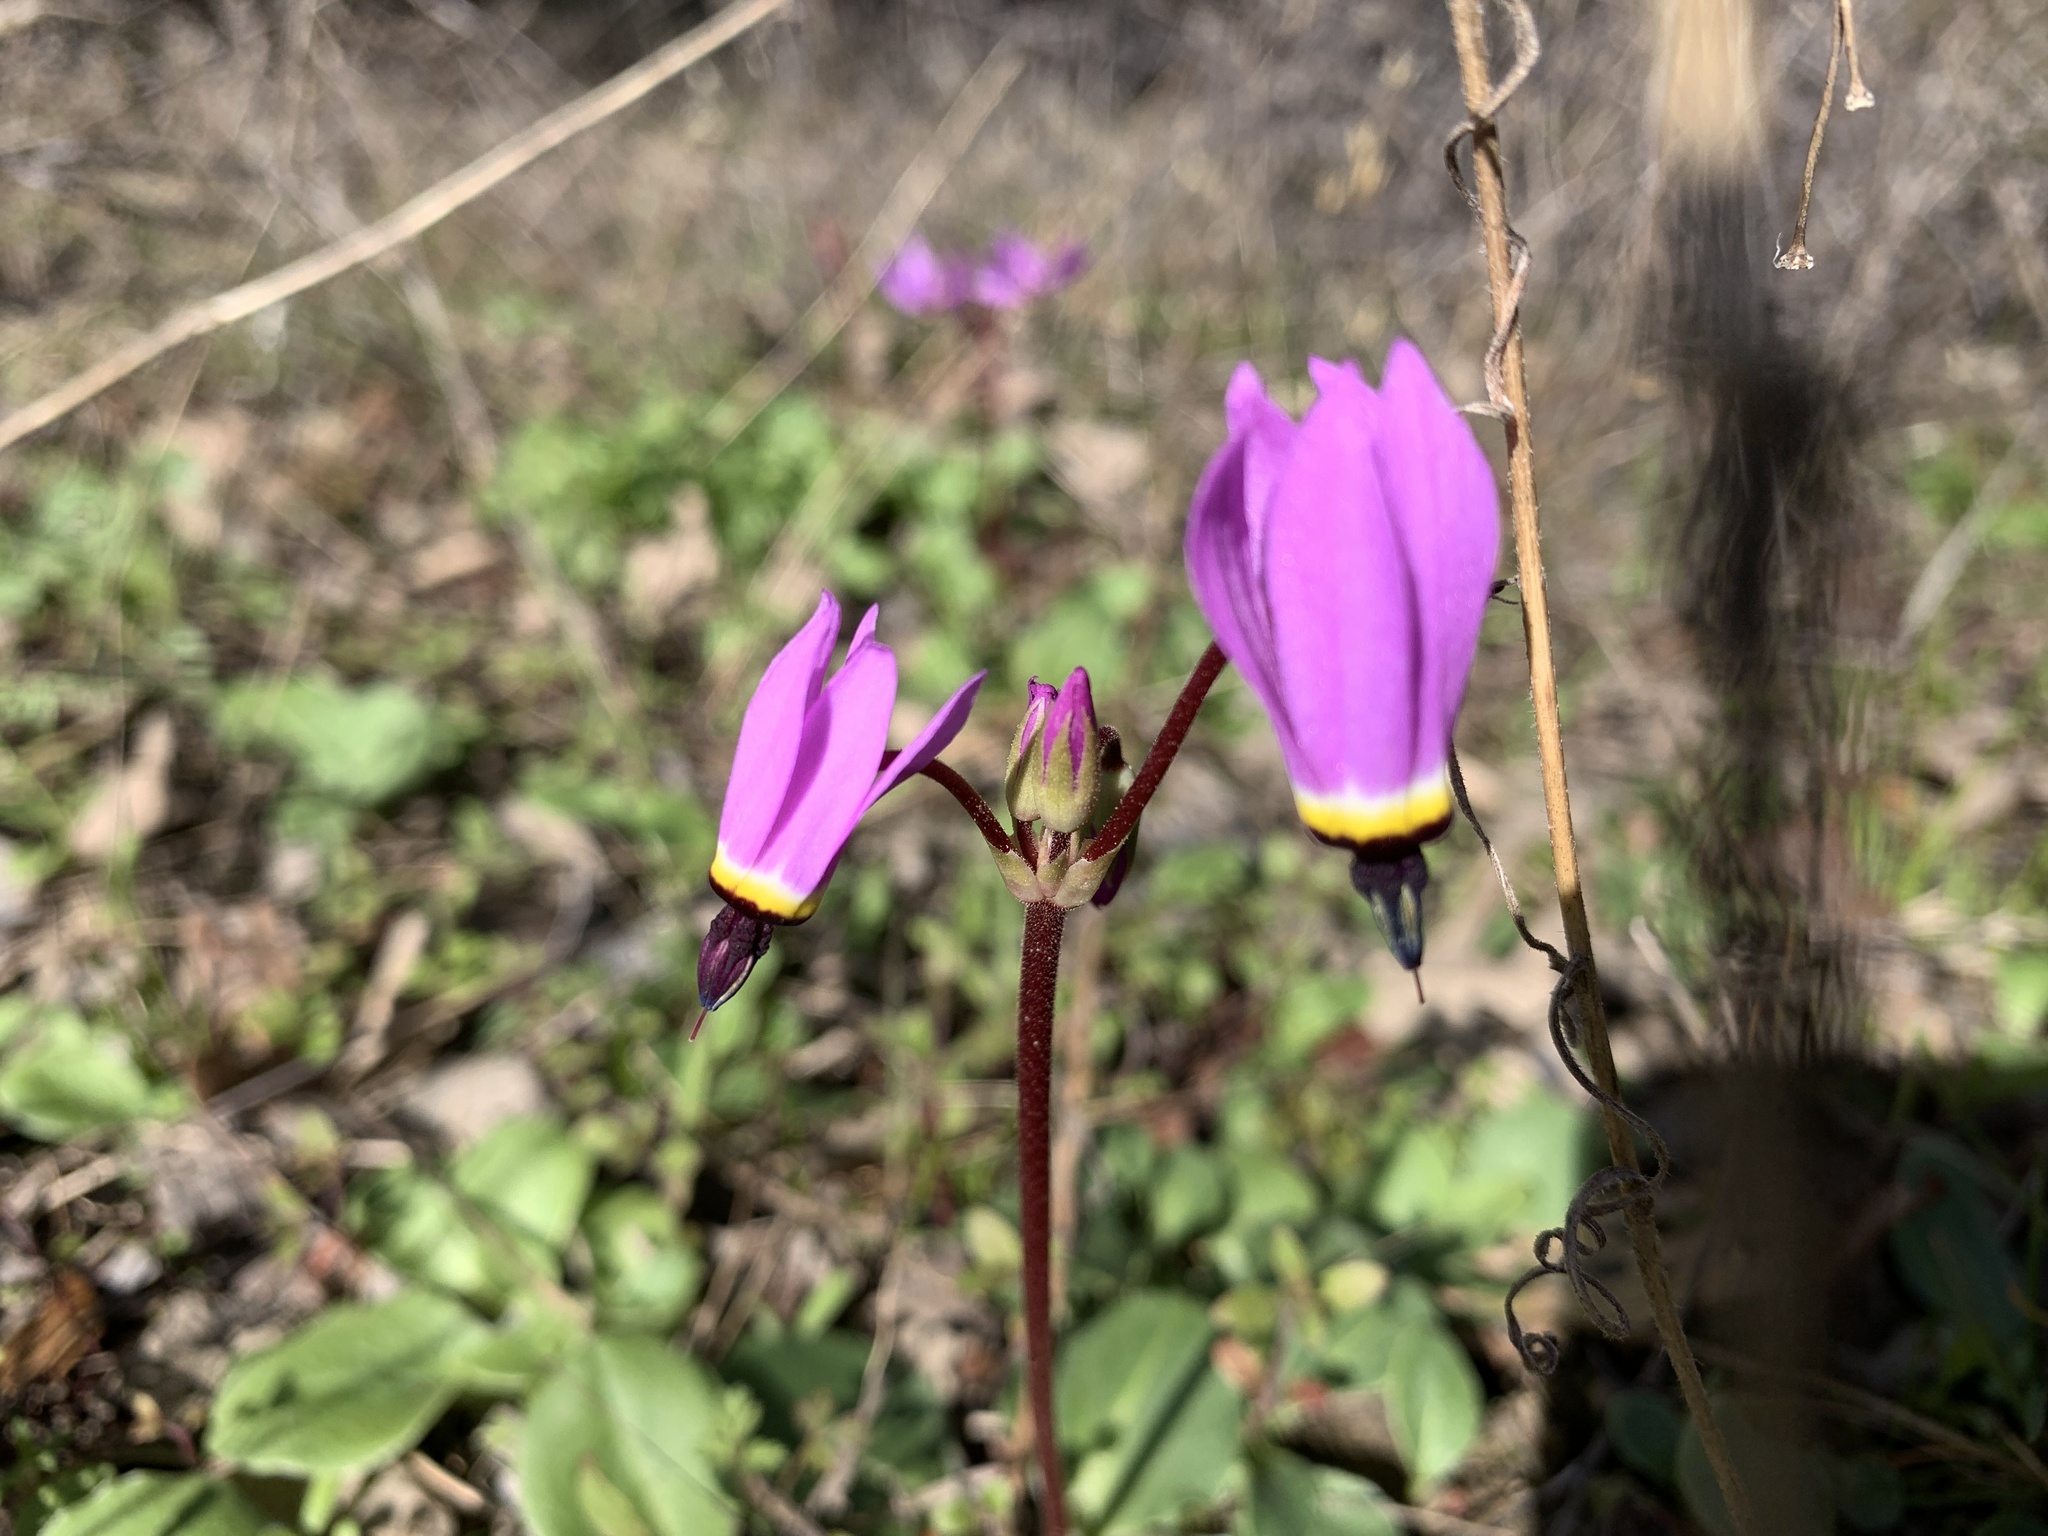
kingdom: Plantae
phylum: Tracheophyta
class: Magnoliopsida
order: Ericales
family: Primulaceae
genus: Dodecatheon
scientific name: Dodecatheon hendersonii
